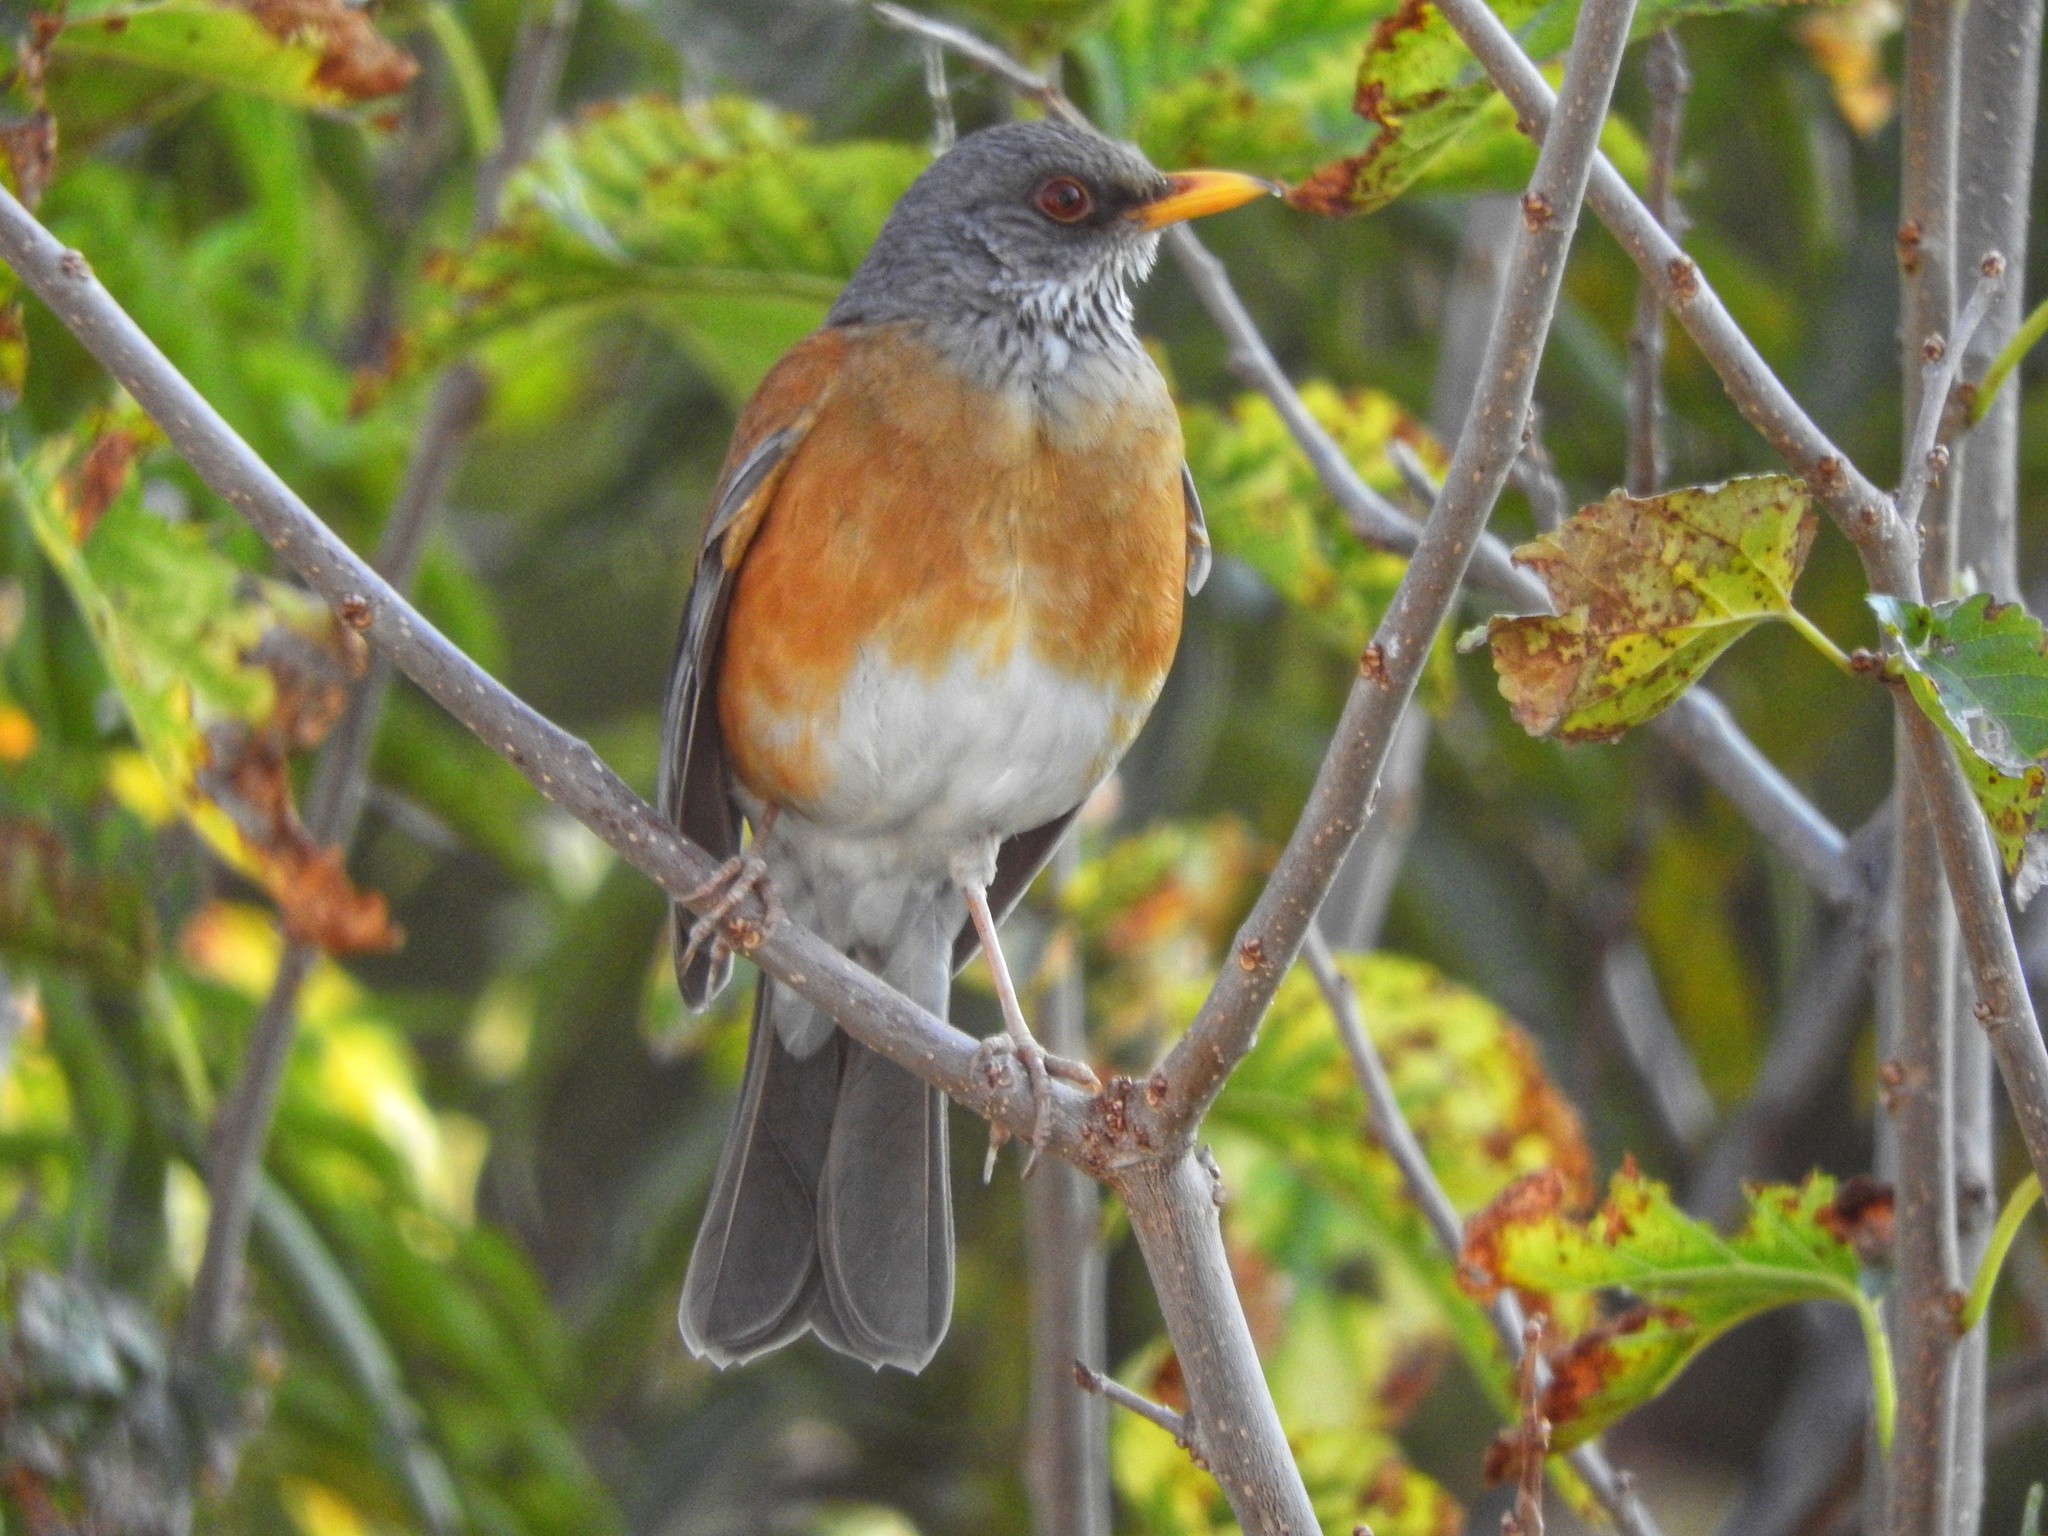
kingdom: Animalia
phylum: Chordata
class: Aves
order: Passeriformes
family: Turdidae
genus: Turdus
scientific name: Turdus rufopalliatus
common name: Rufous-backed robin
